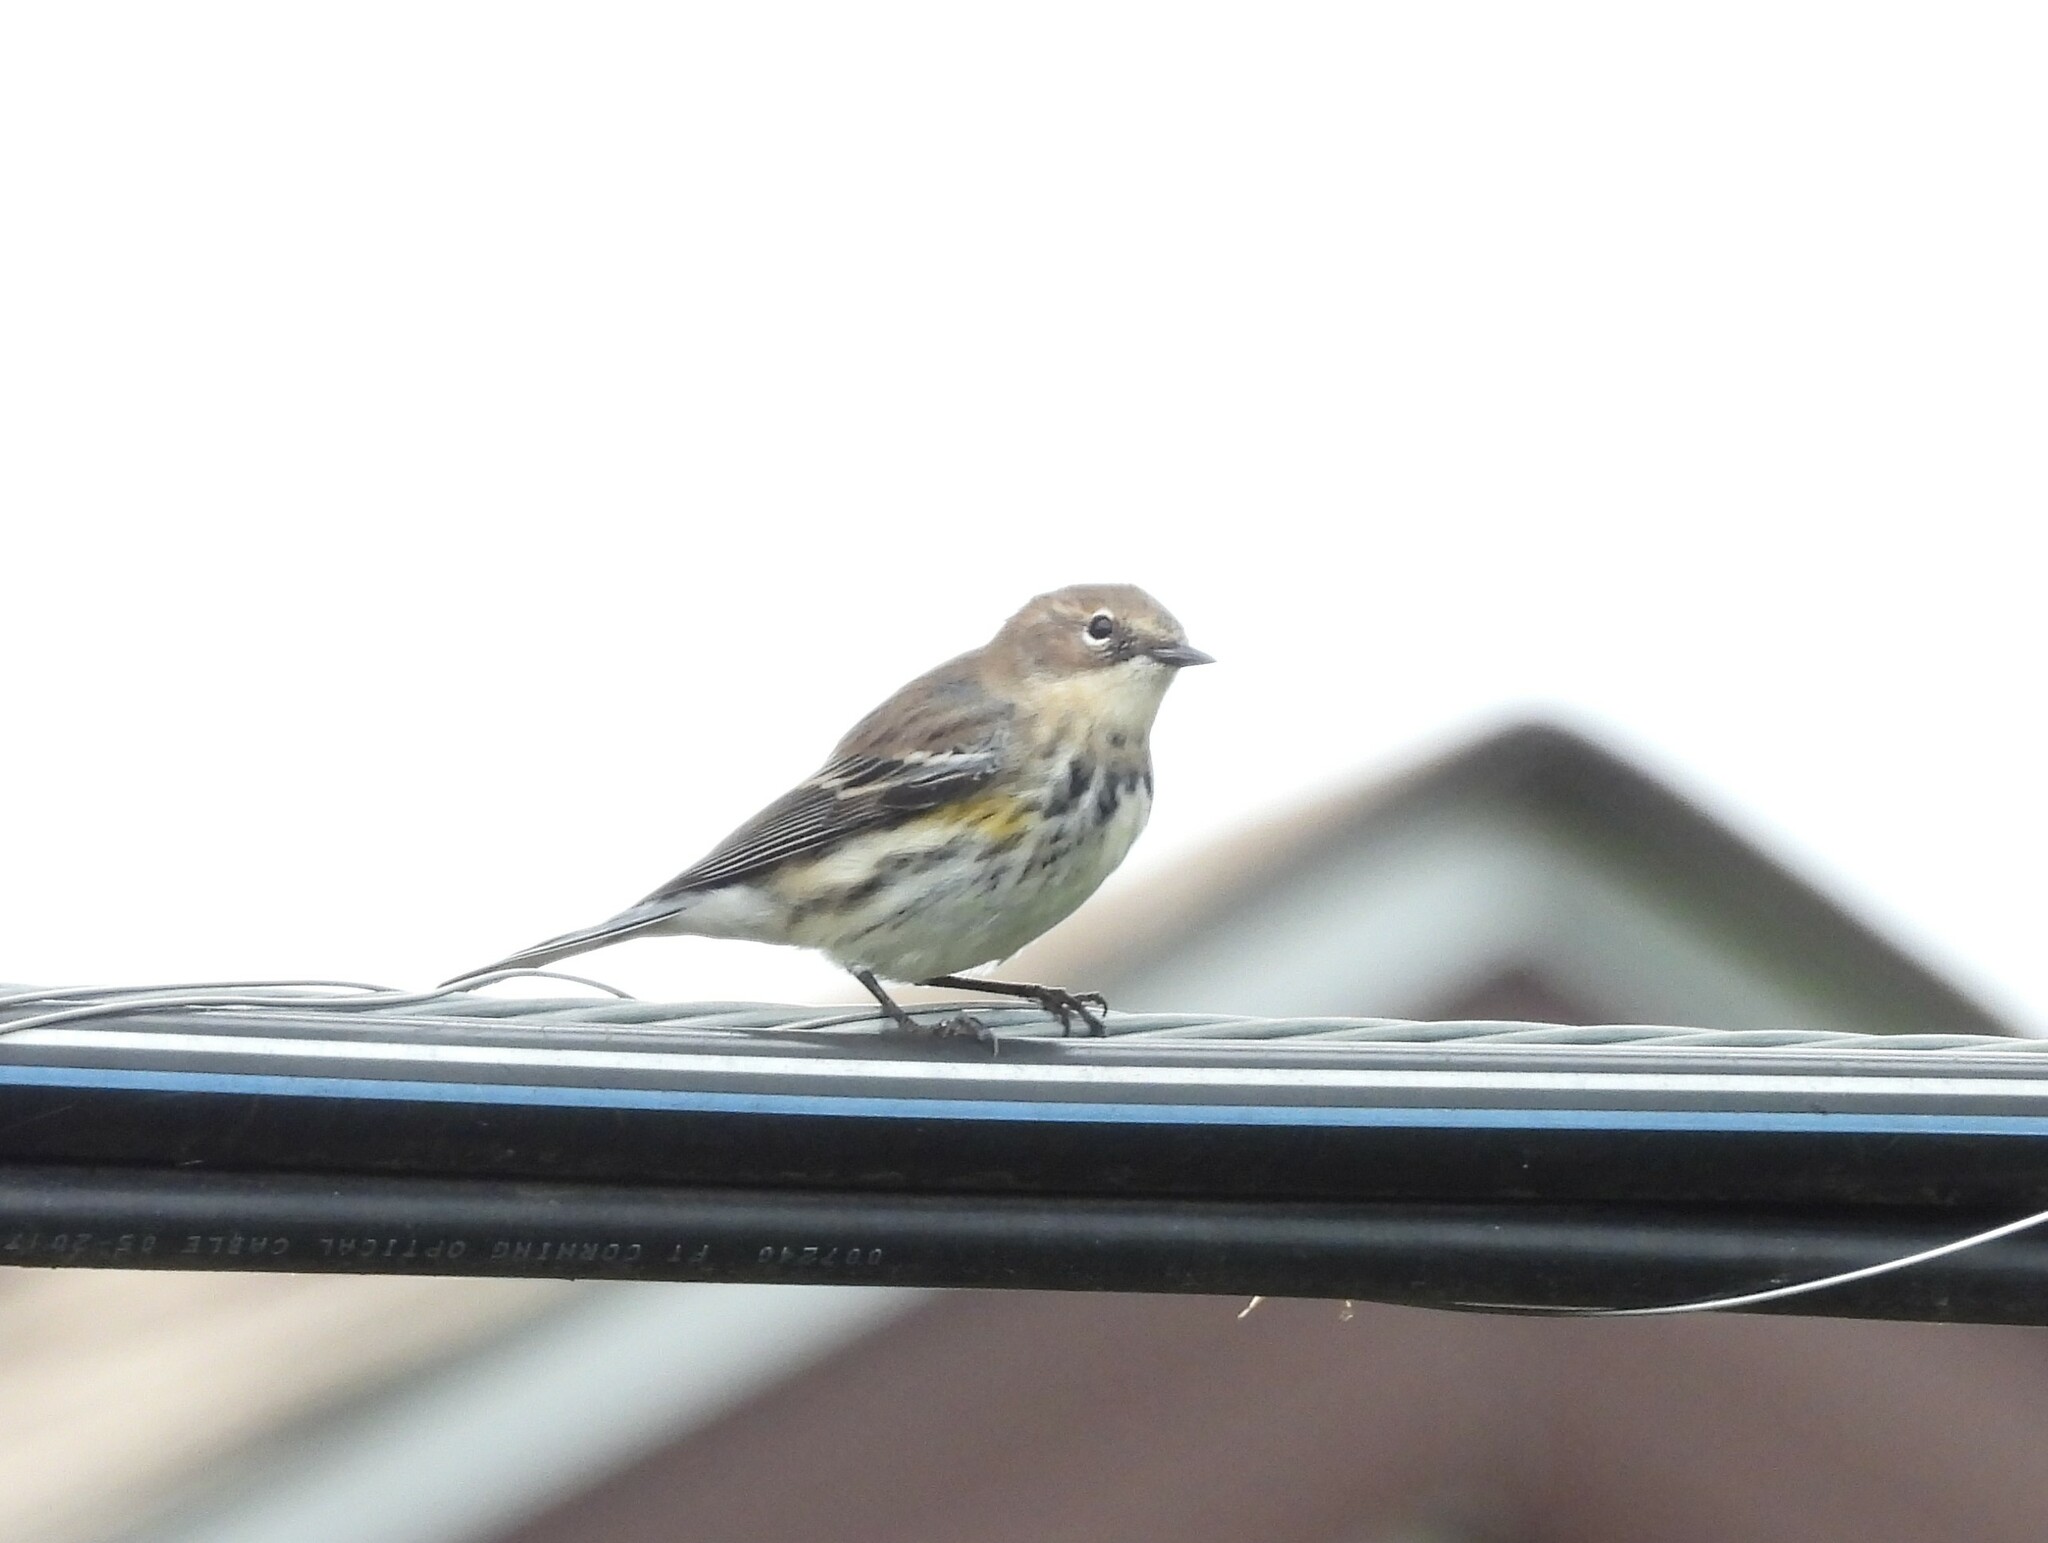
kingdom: Animalia
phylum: Chordata
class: Aves
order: Passeriformes
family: Parulidae
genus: Setophaga
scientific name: Setophaga coronata
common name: Myrtle warbler
